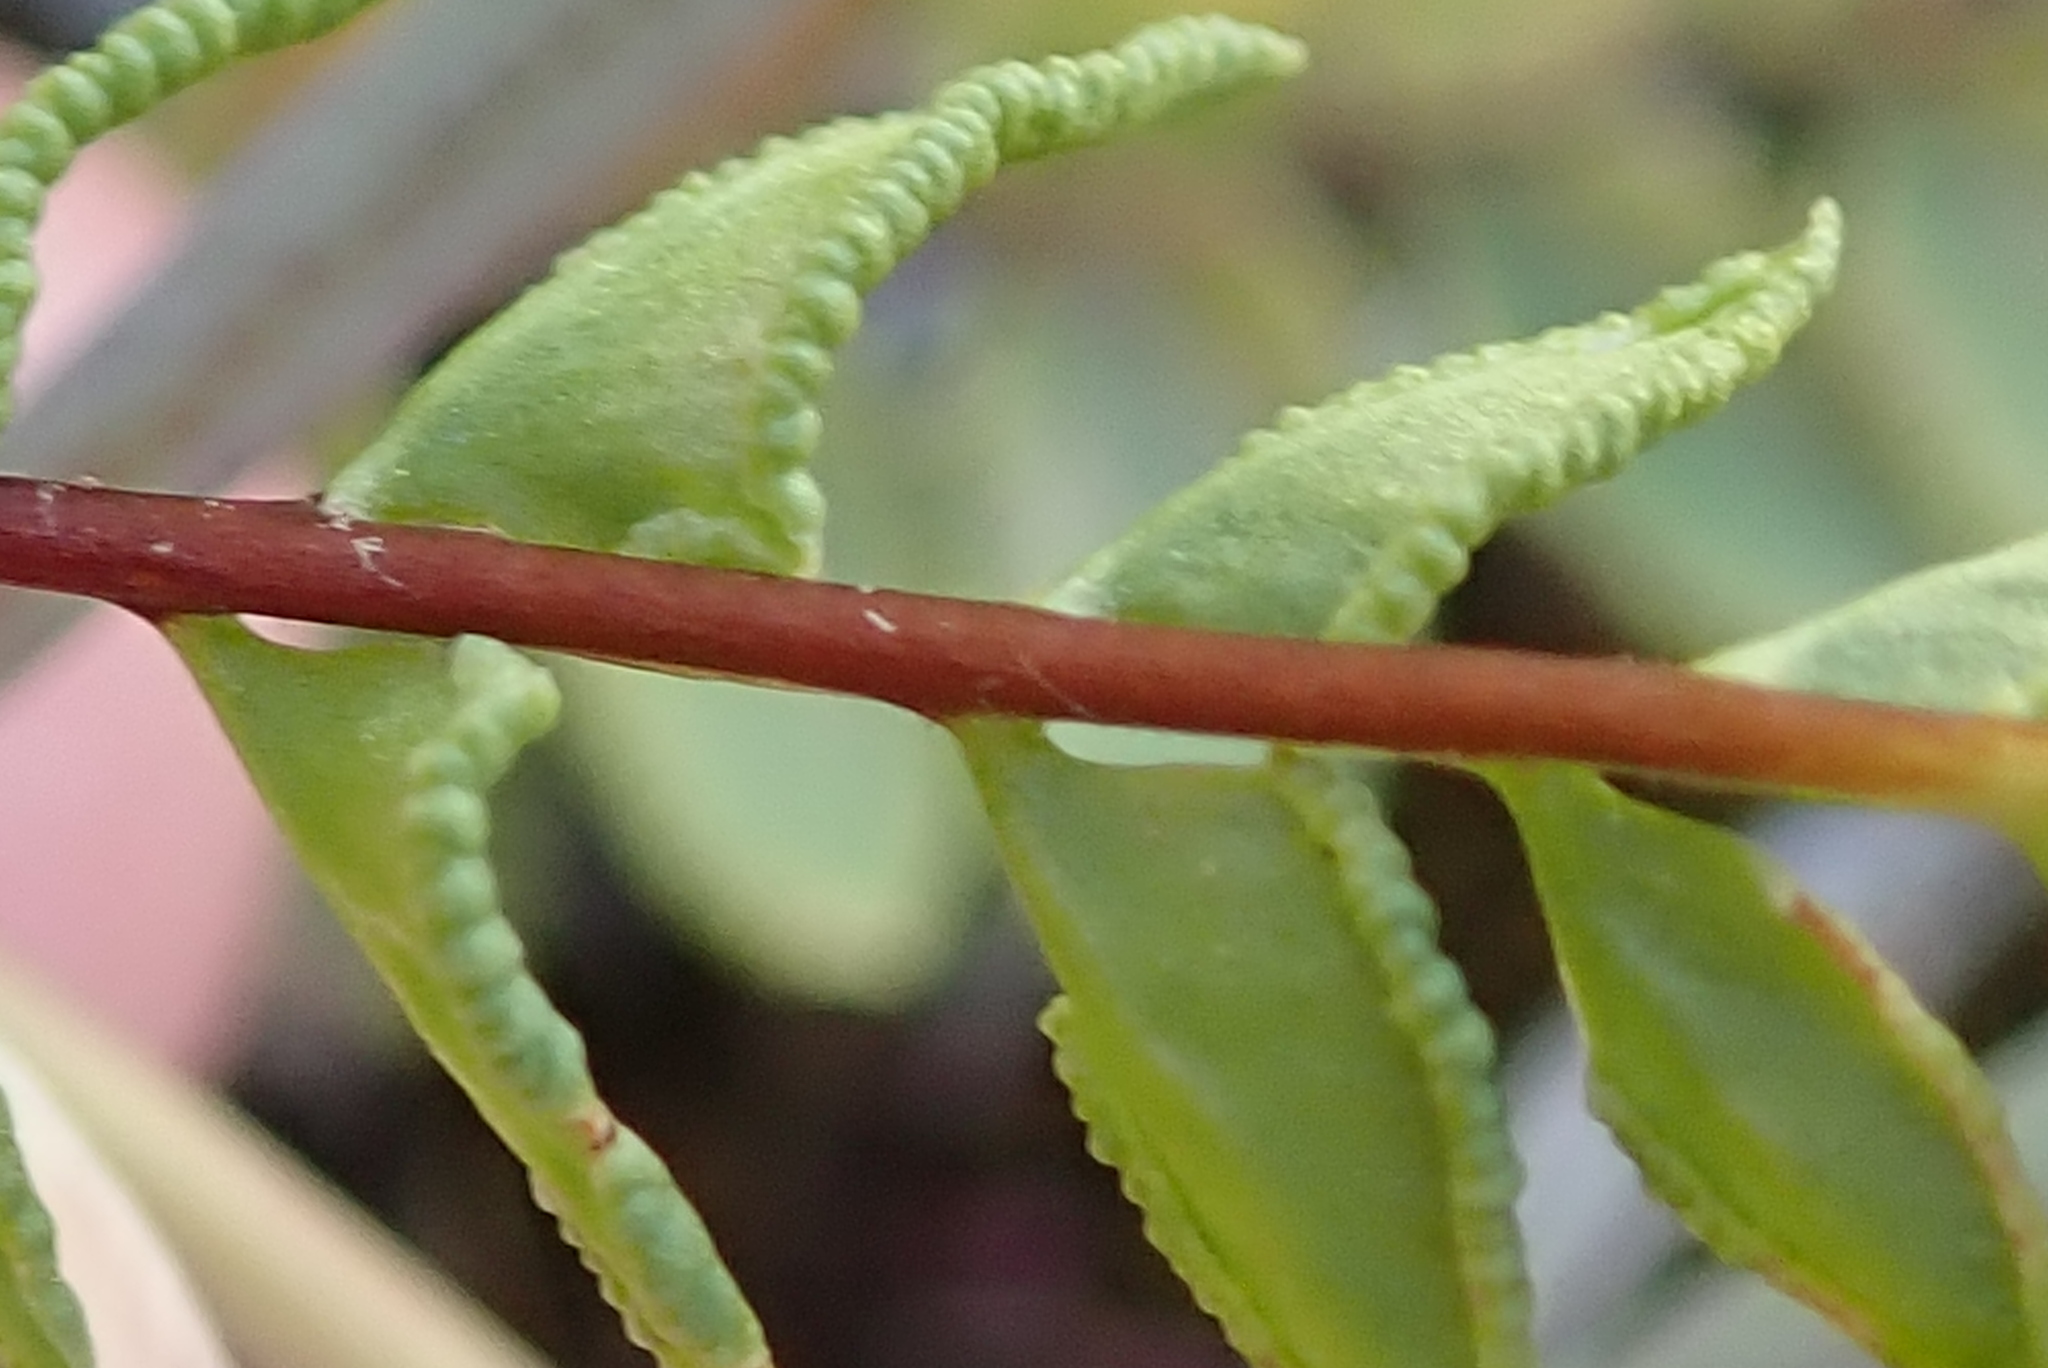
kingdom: Plantae
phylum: Tracheophyta
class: Polypodiopsida
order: Polypodiales
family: Pteridaceae
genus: Cheilanthes
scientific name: Cheilanthes hastata
